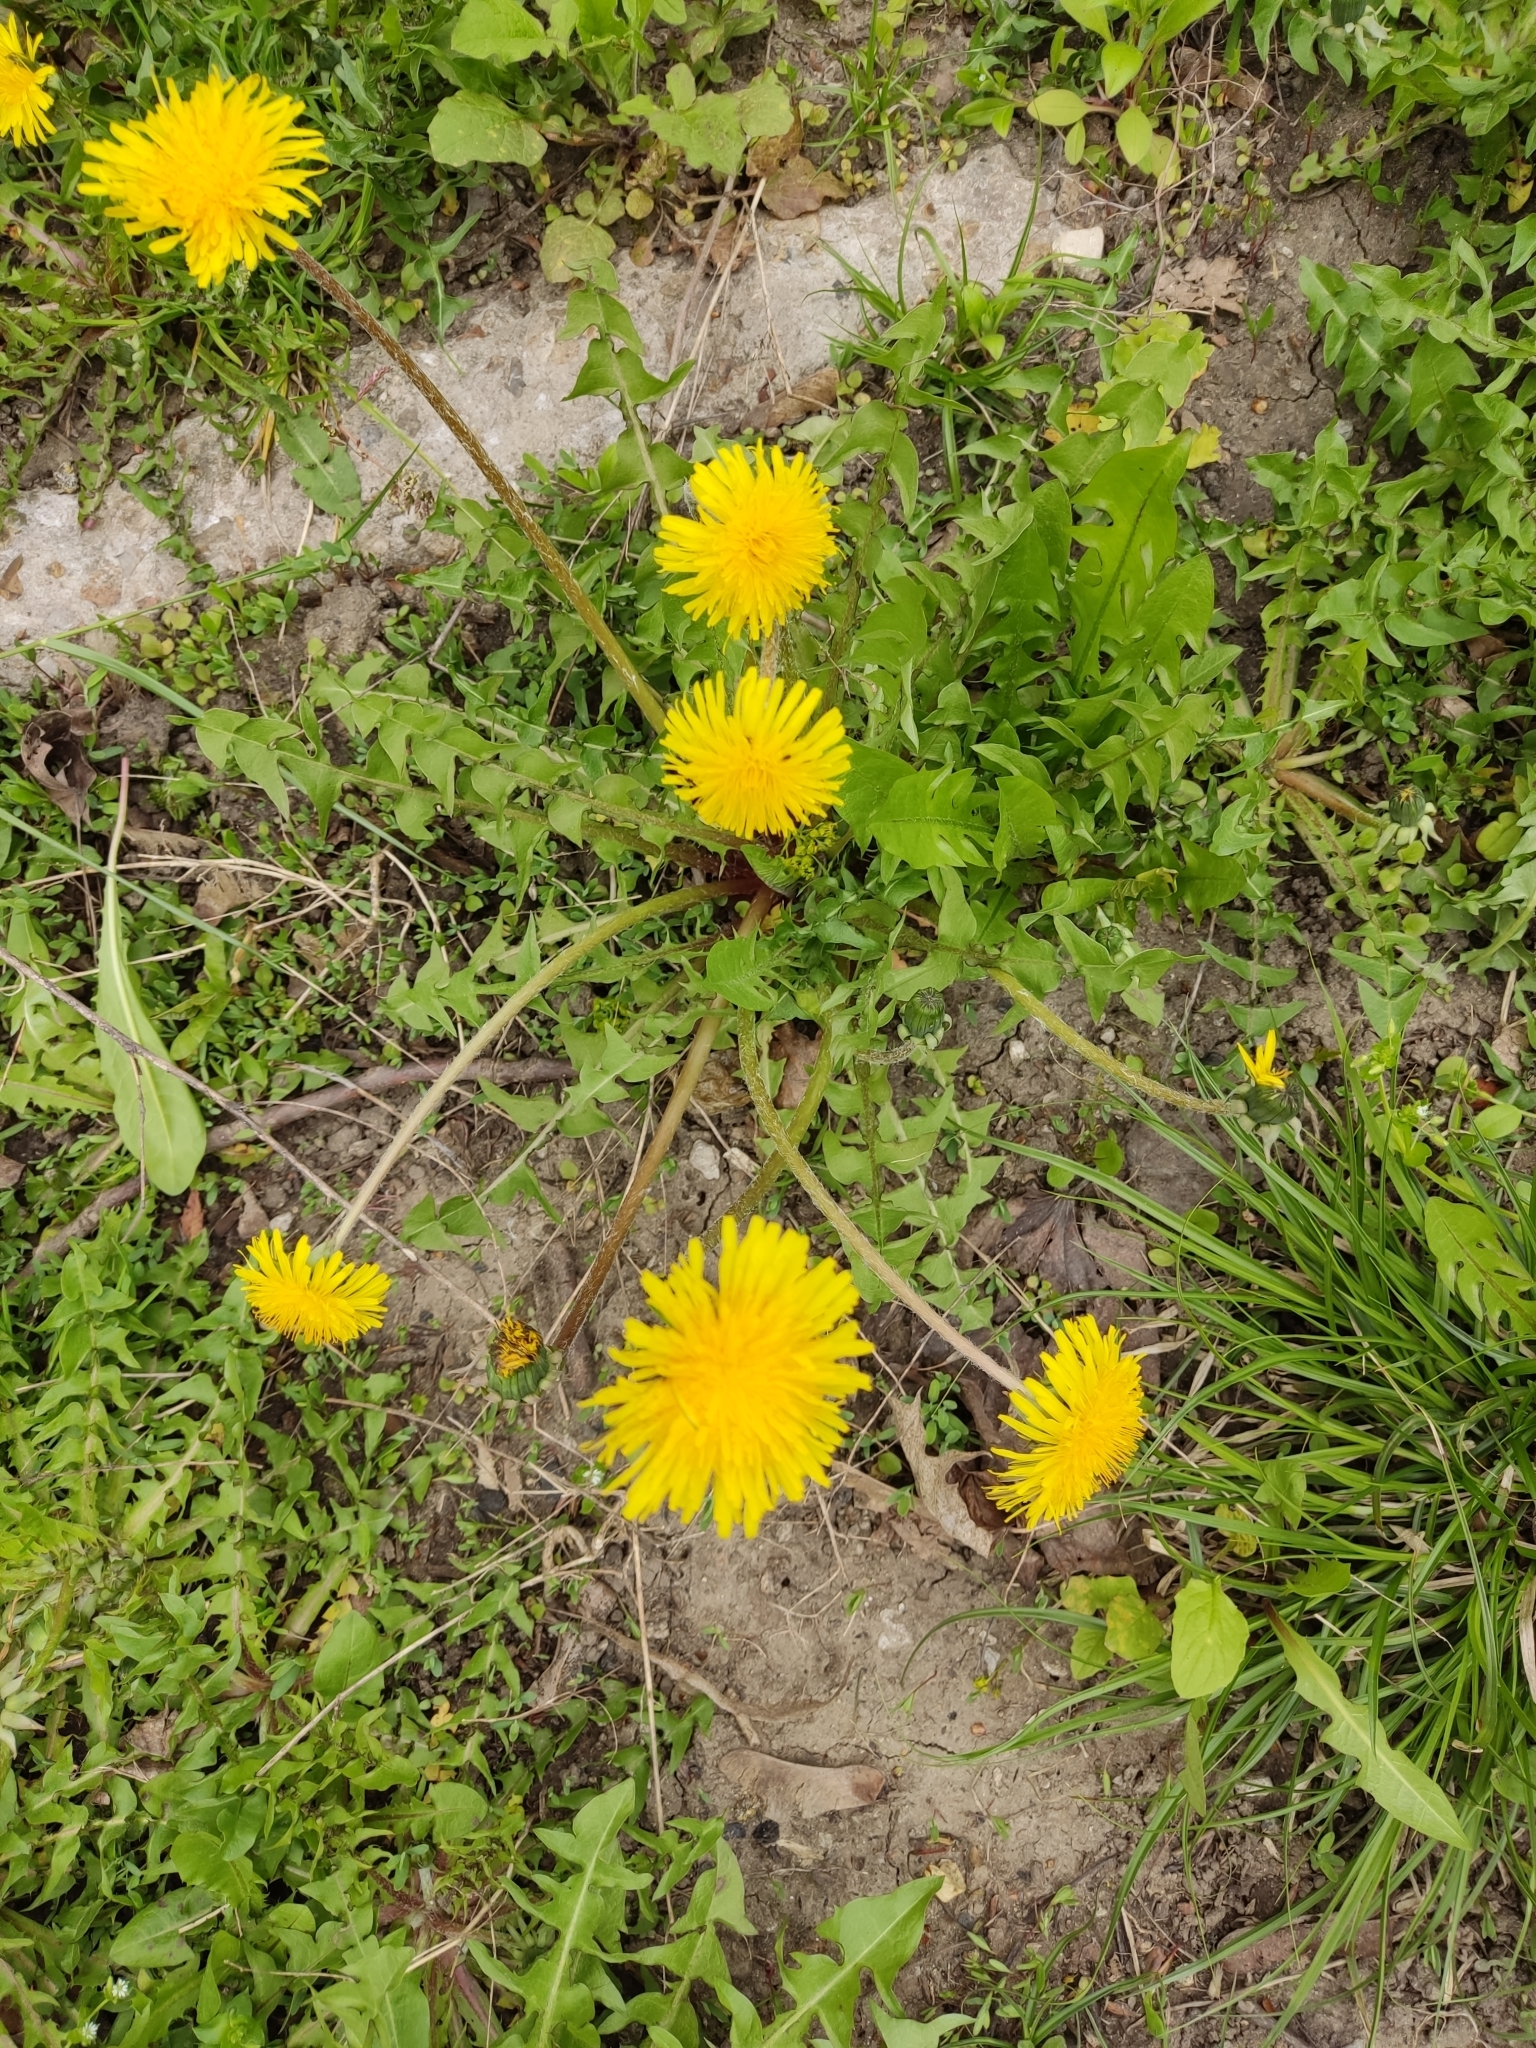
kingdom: Plantae
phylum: Tracheophyta
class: Magnoliopsida
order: Asterales
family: Asteraceae
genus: Taraxacum
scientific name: Taraxacum officinale
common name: Common dandelion
